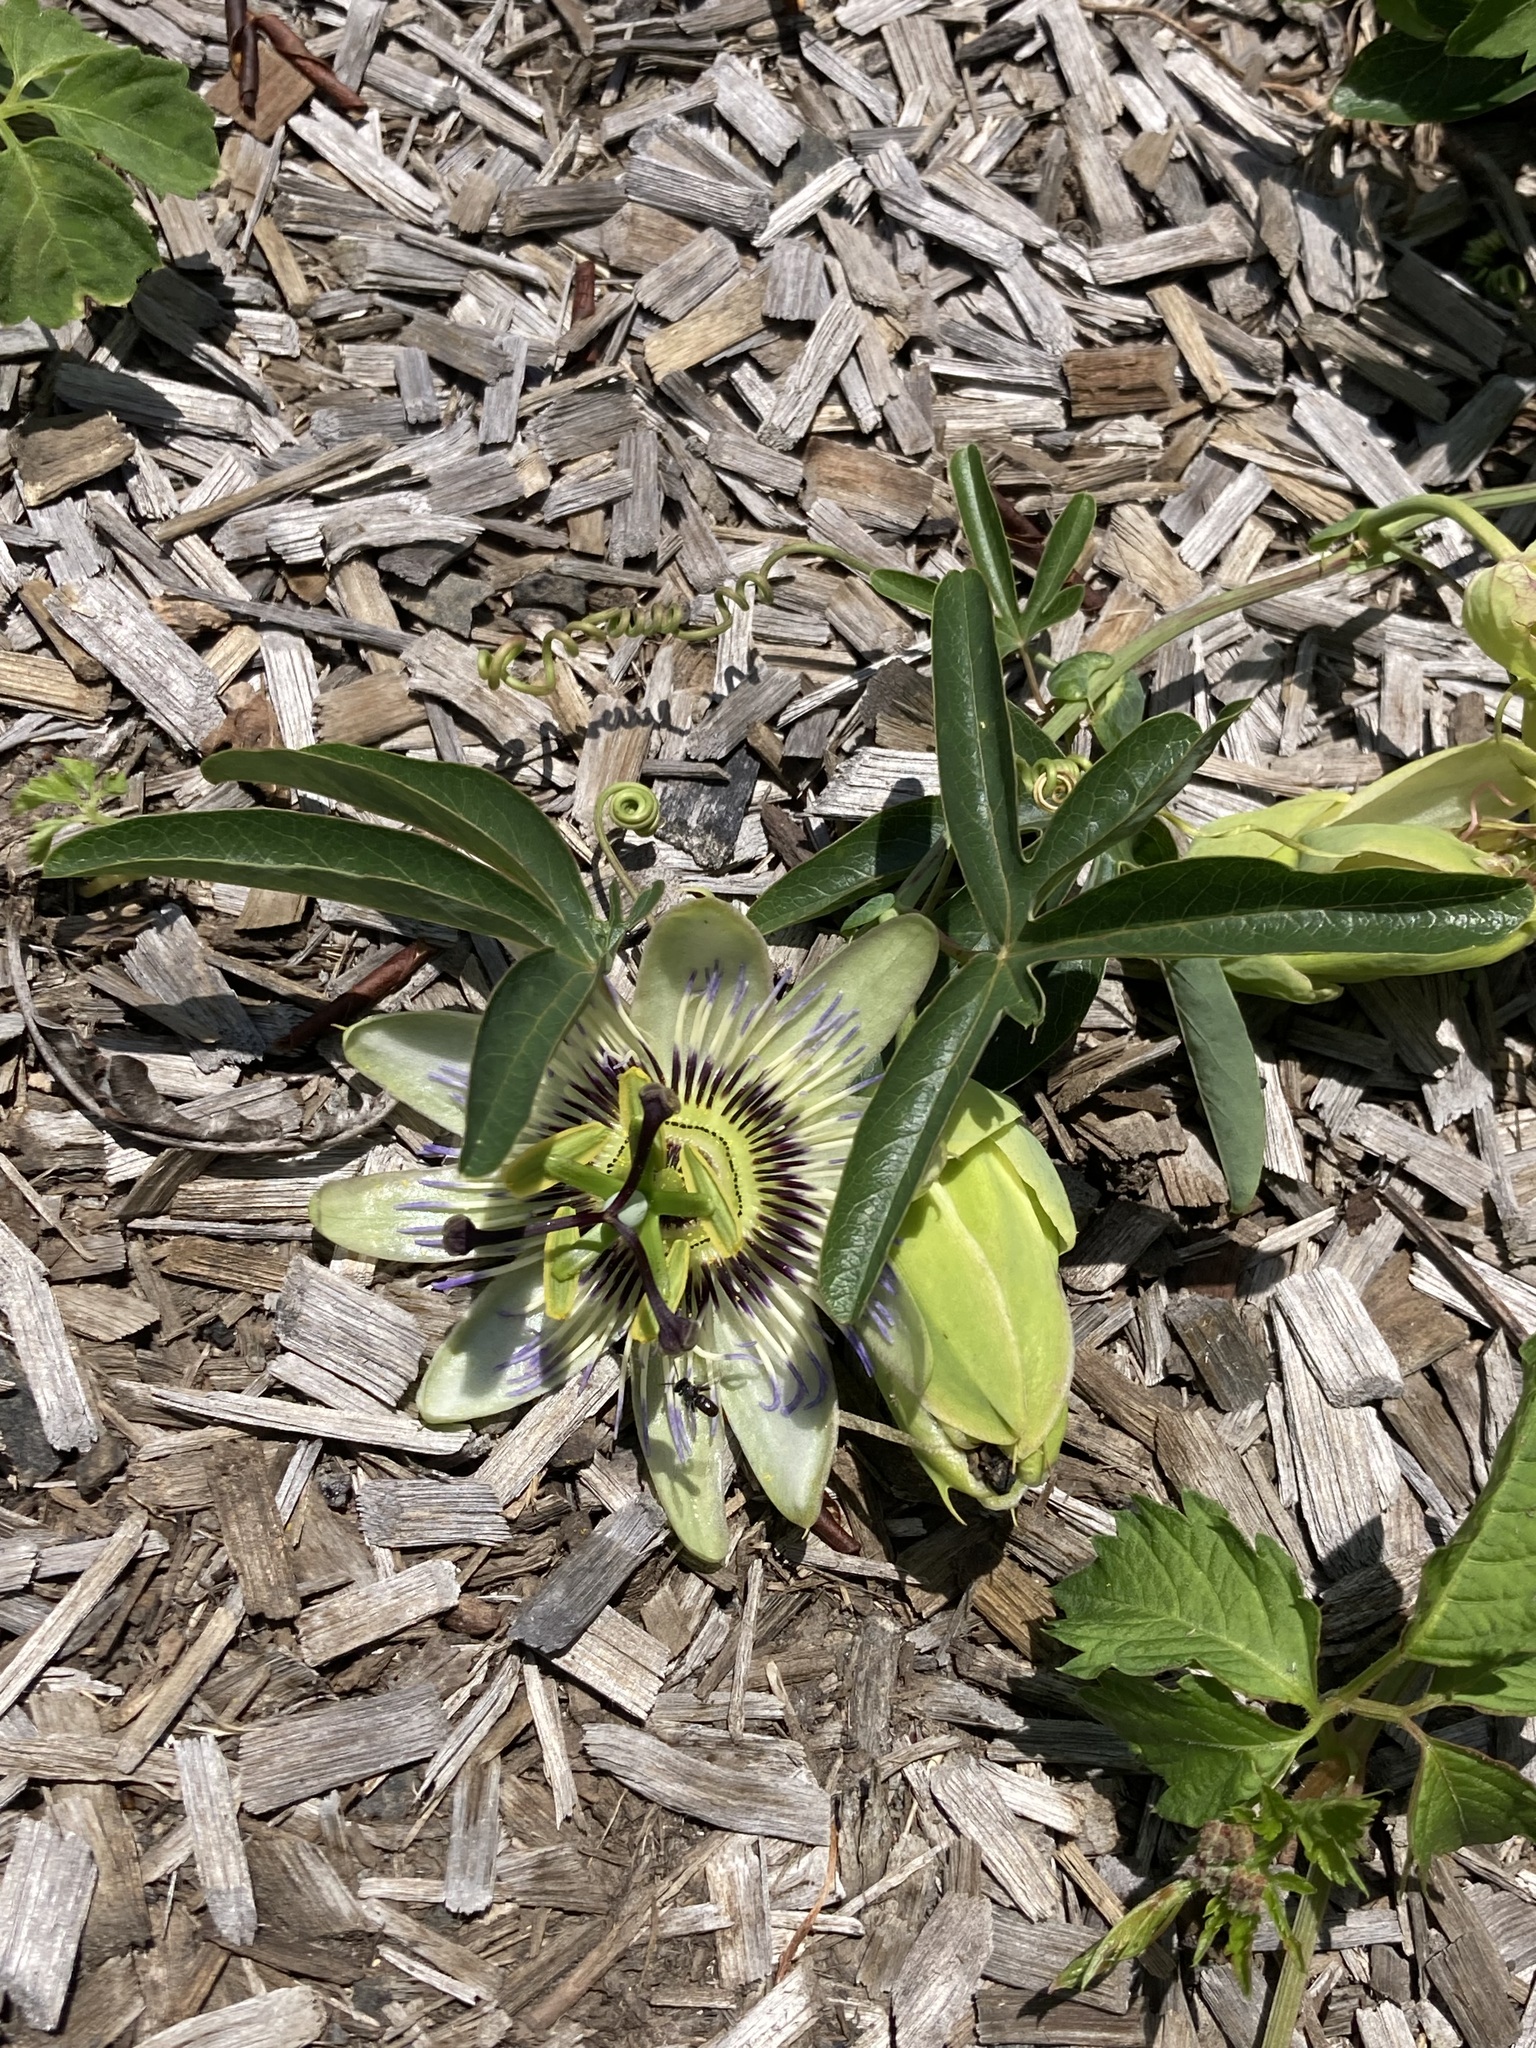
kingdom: Plantae
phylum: Tracheophyta
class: Magnoliopsida
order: Malpighiales
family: Passifloraceae
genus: Passiflora
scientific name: Passiflora caerulea
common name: Blue passionflower
